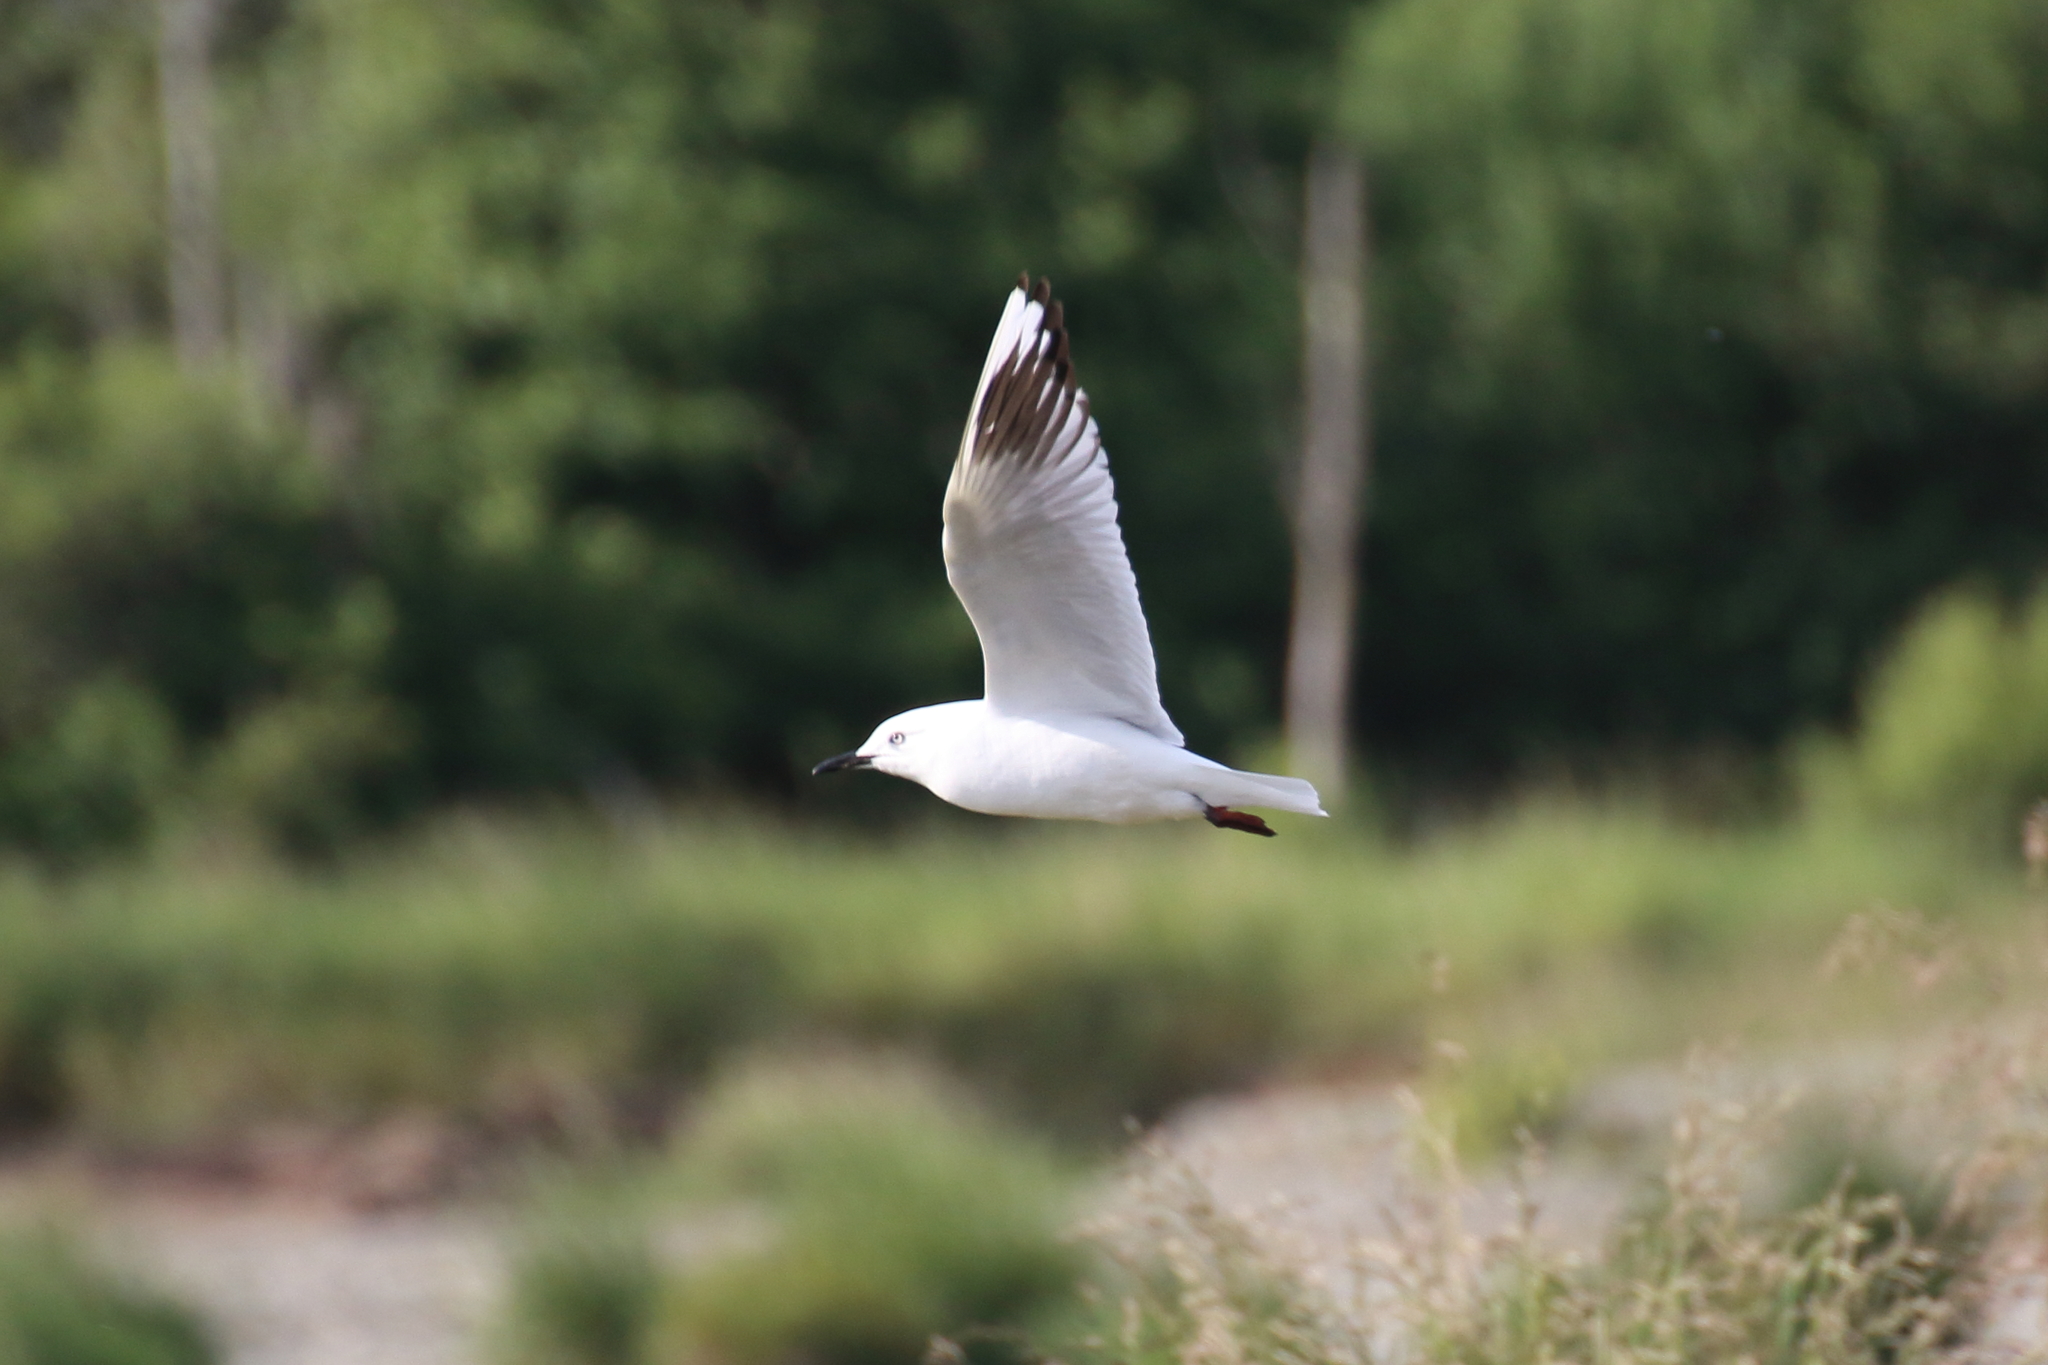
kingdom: Animalia
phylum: Chordata
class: Aves
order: Charadriiformes
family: Laridae
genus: Chroicocephalus
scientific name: Chroicocephalus bulleri
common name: Black-billed gull
